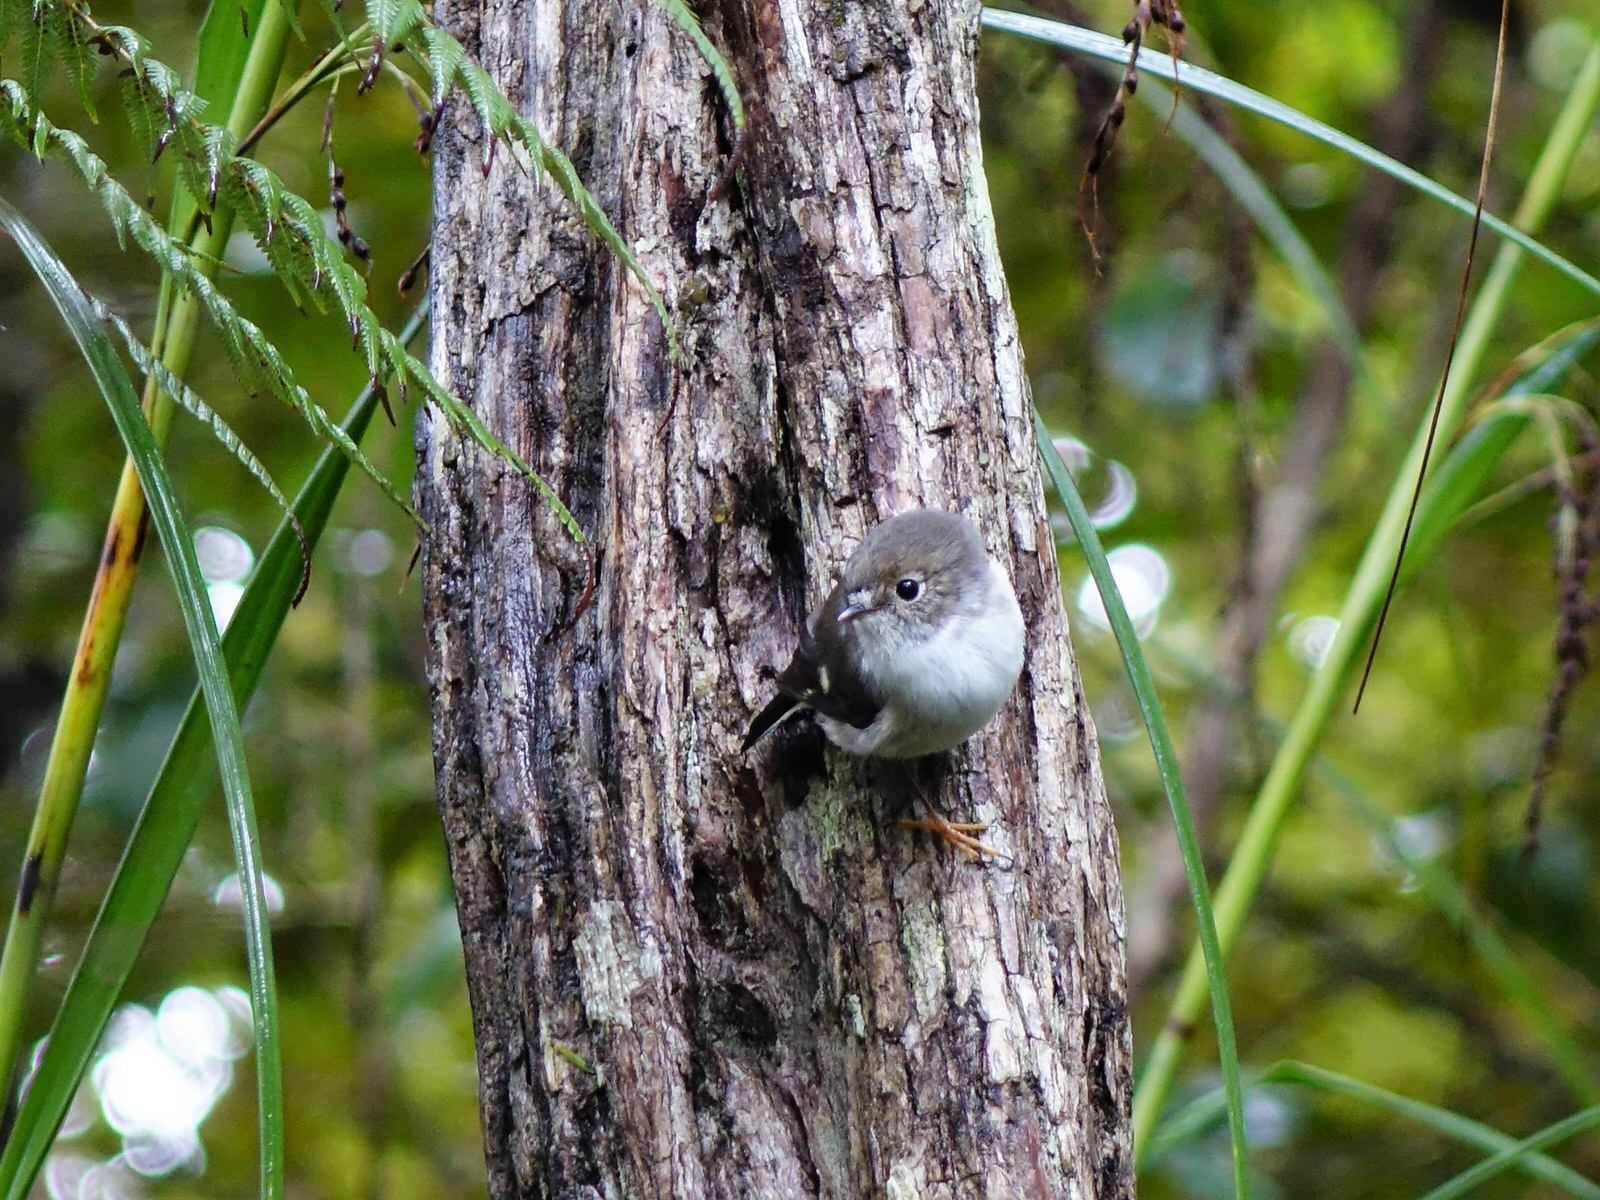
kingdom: Animalia
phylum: Chordata
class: Aves
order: Passeriformes
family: Petroicidae
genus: Petroica
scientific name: Petroica macrocephala
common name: Tomtit
